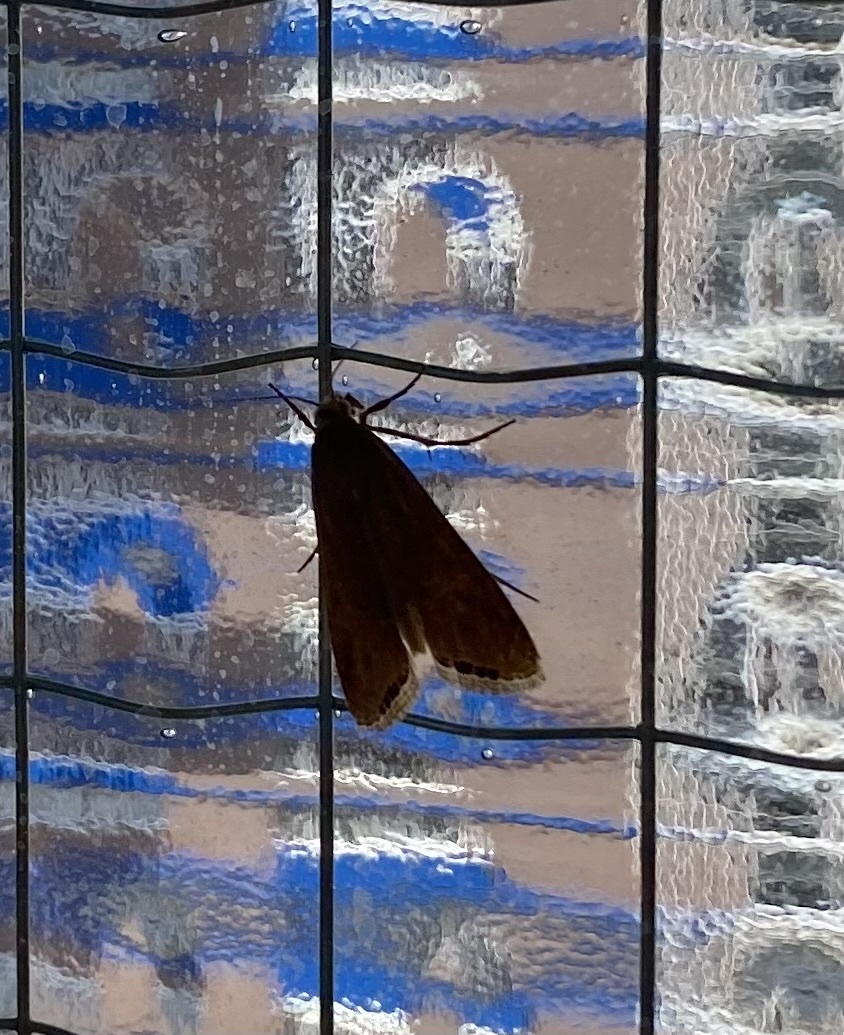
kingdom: Animalia
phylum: Arthropoda
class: Insecta
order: Lepidoptera
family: Crambidae
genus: Euchromius
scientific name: Euchromius ocellea
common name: Necklace veneer moth
